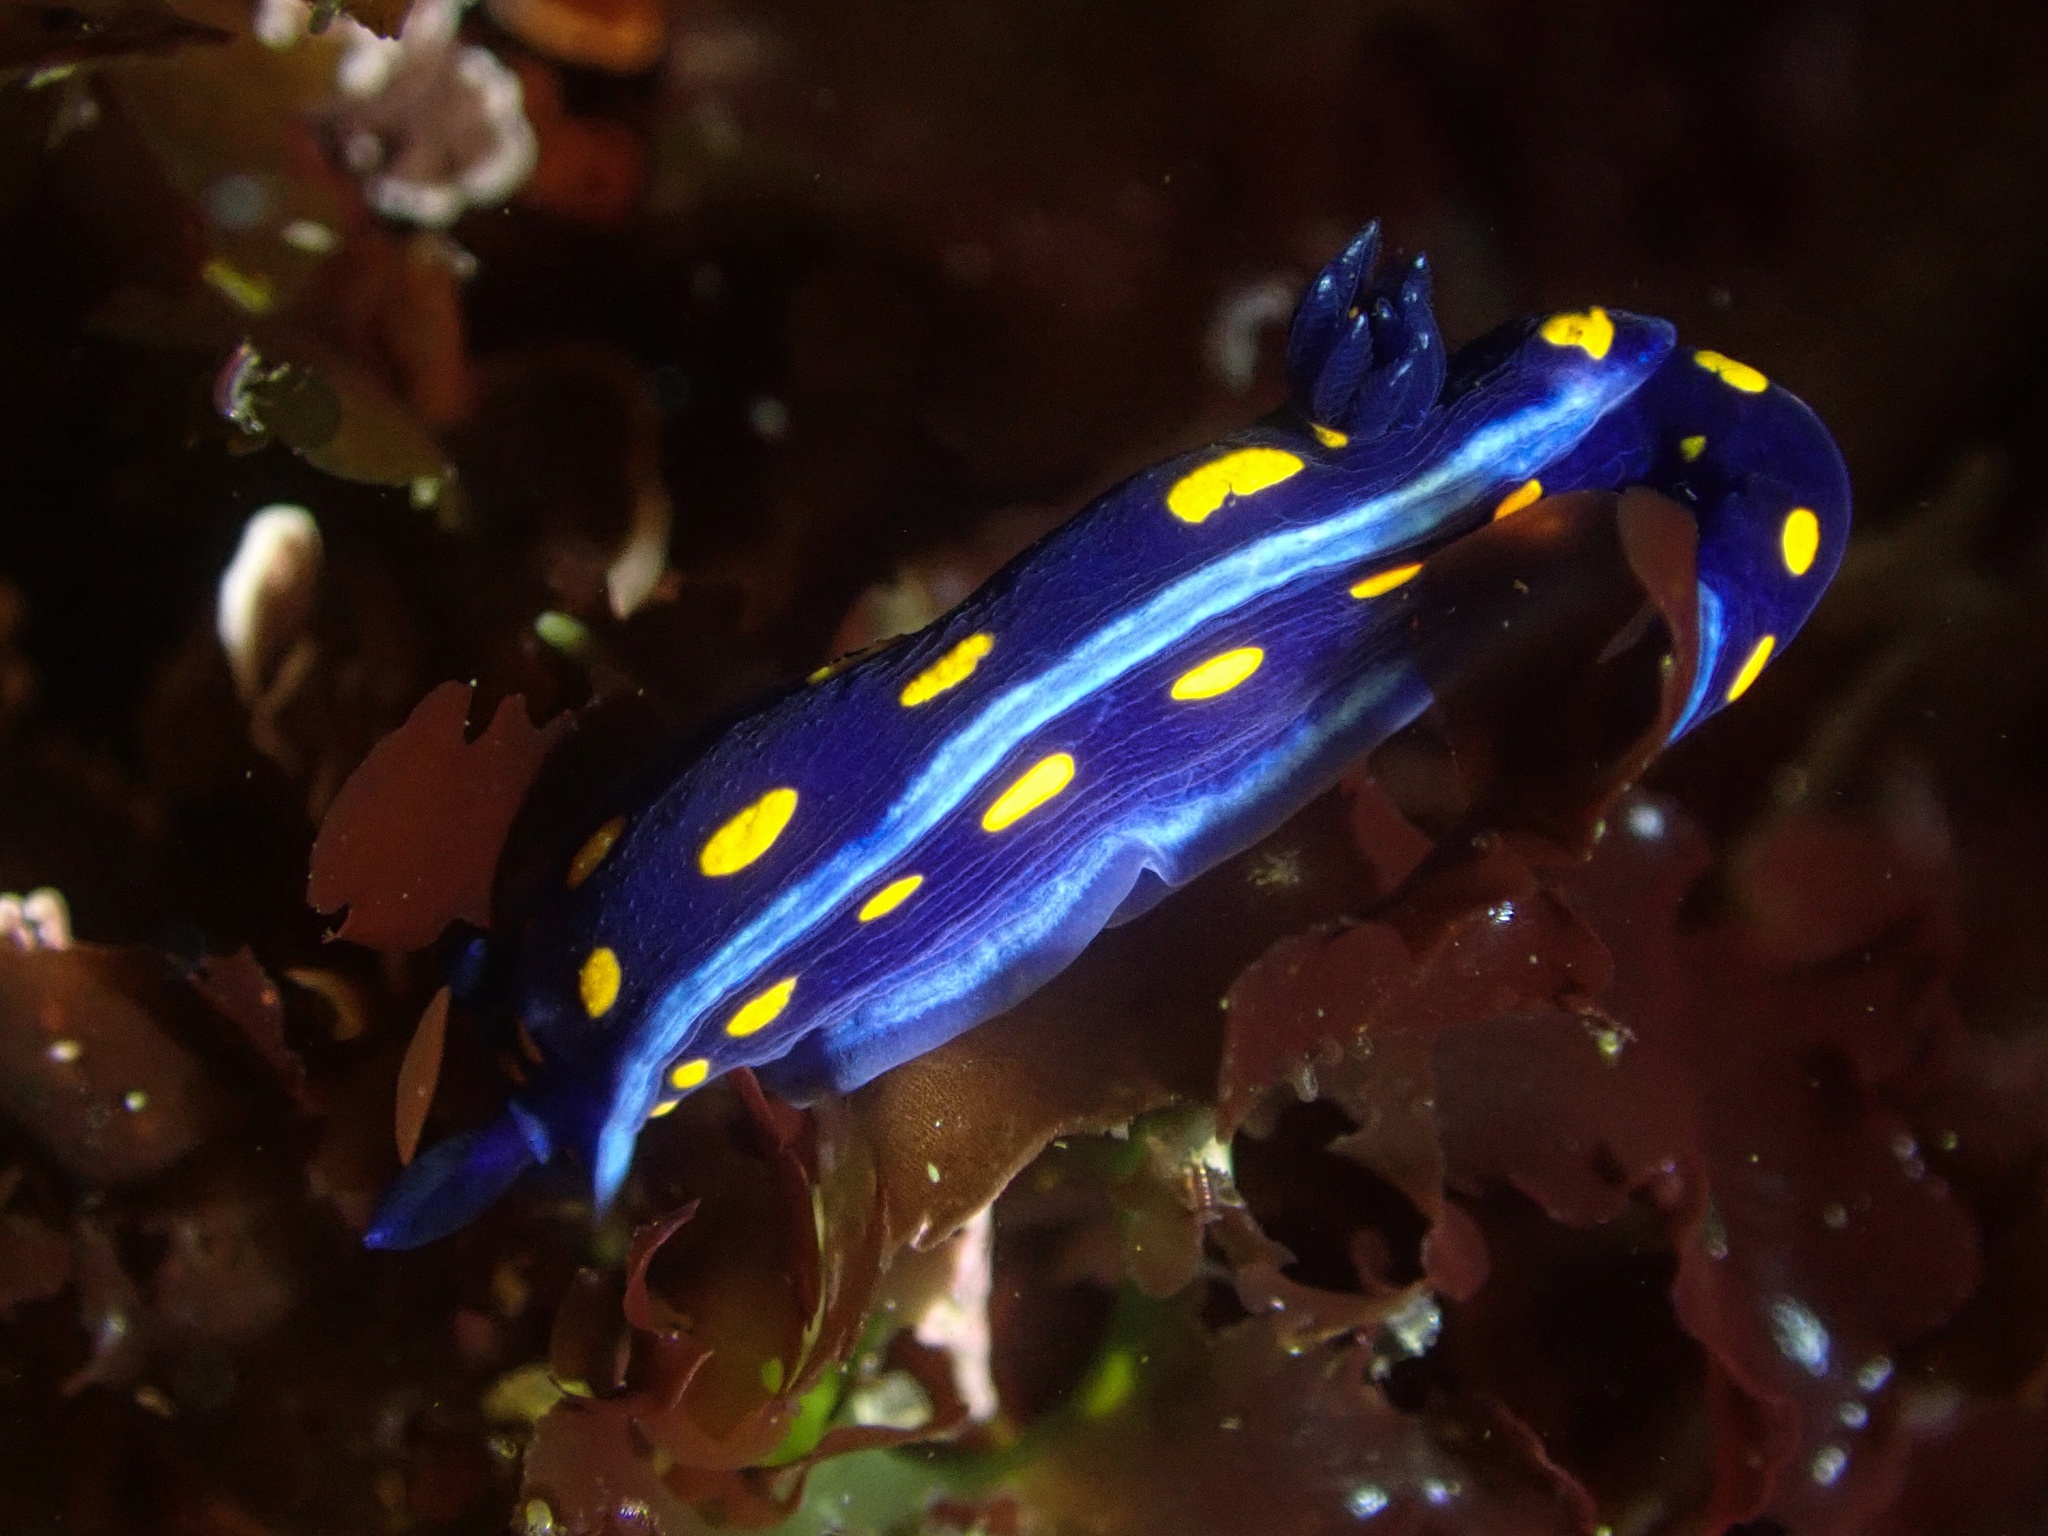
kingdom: Animalia
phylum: Mollusca
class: Gastropoda
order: Nudibranchia
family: Chromodorididae
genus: Felimare
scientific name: Felimare californiensis
